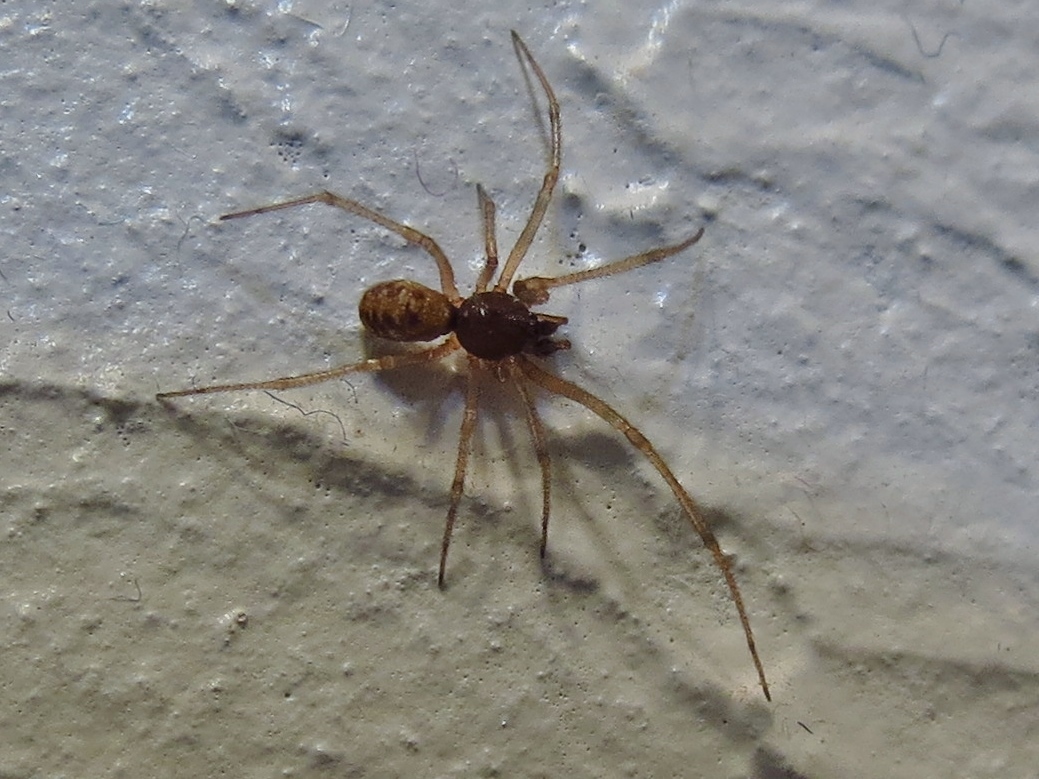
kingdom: Animalia
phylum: Arthropoda
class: Arachnida
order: Araneae
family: Theridiidae
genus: Steatoda
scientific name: Steatoda triangulosa
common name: Triangulate bud spider
